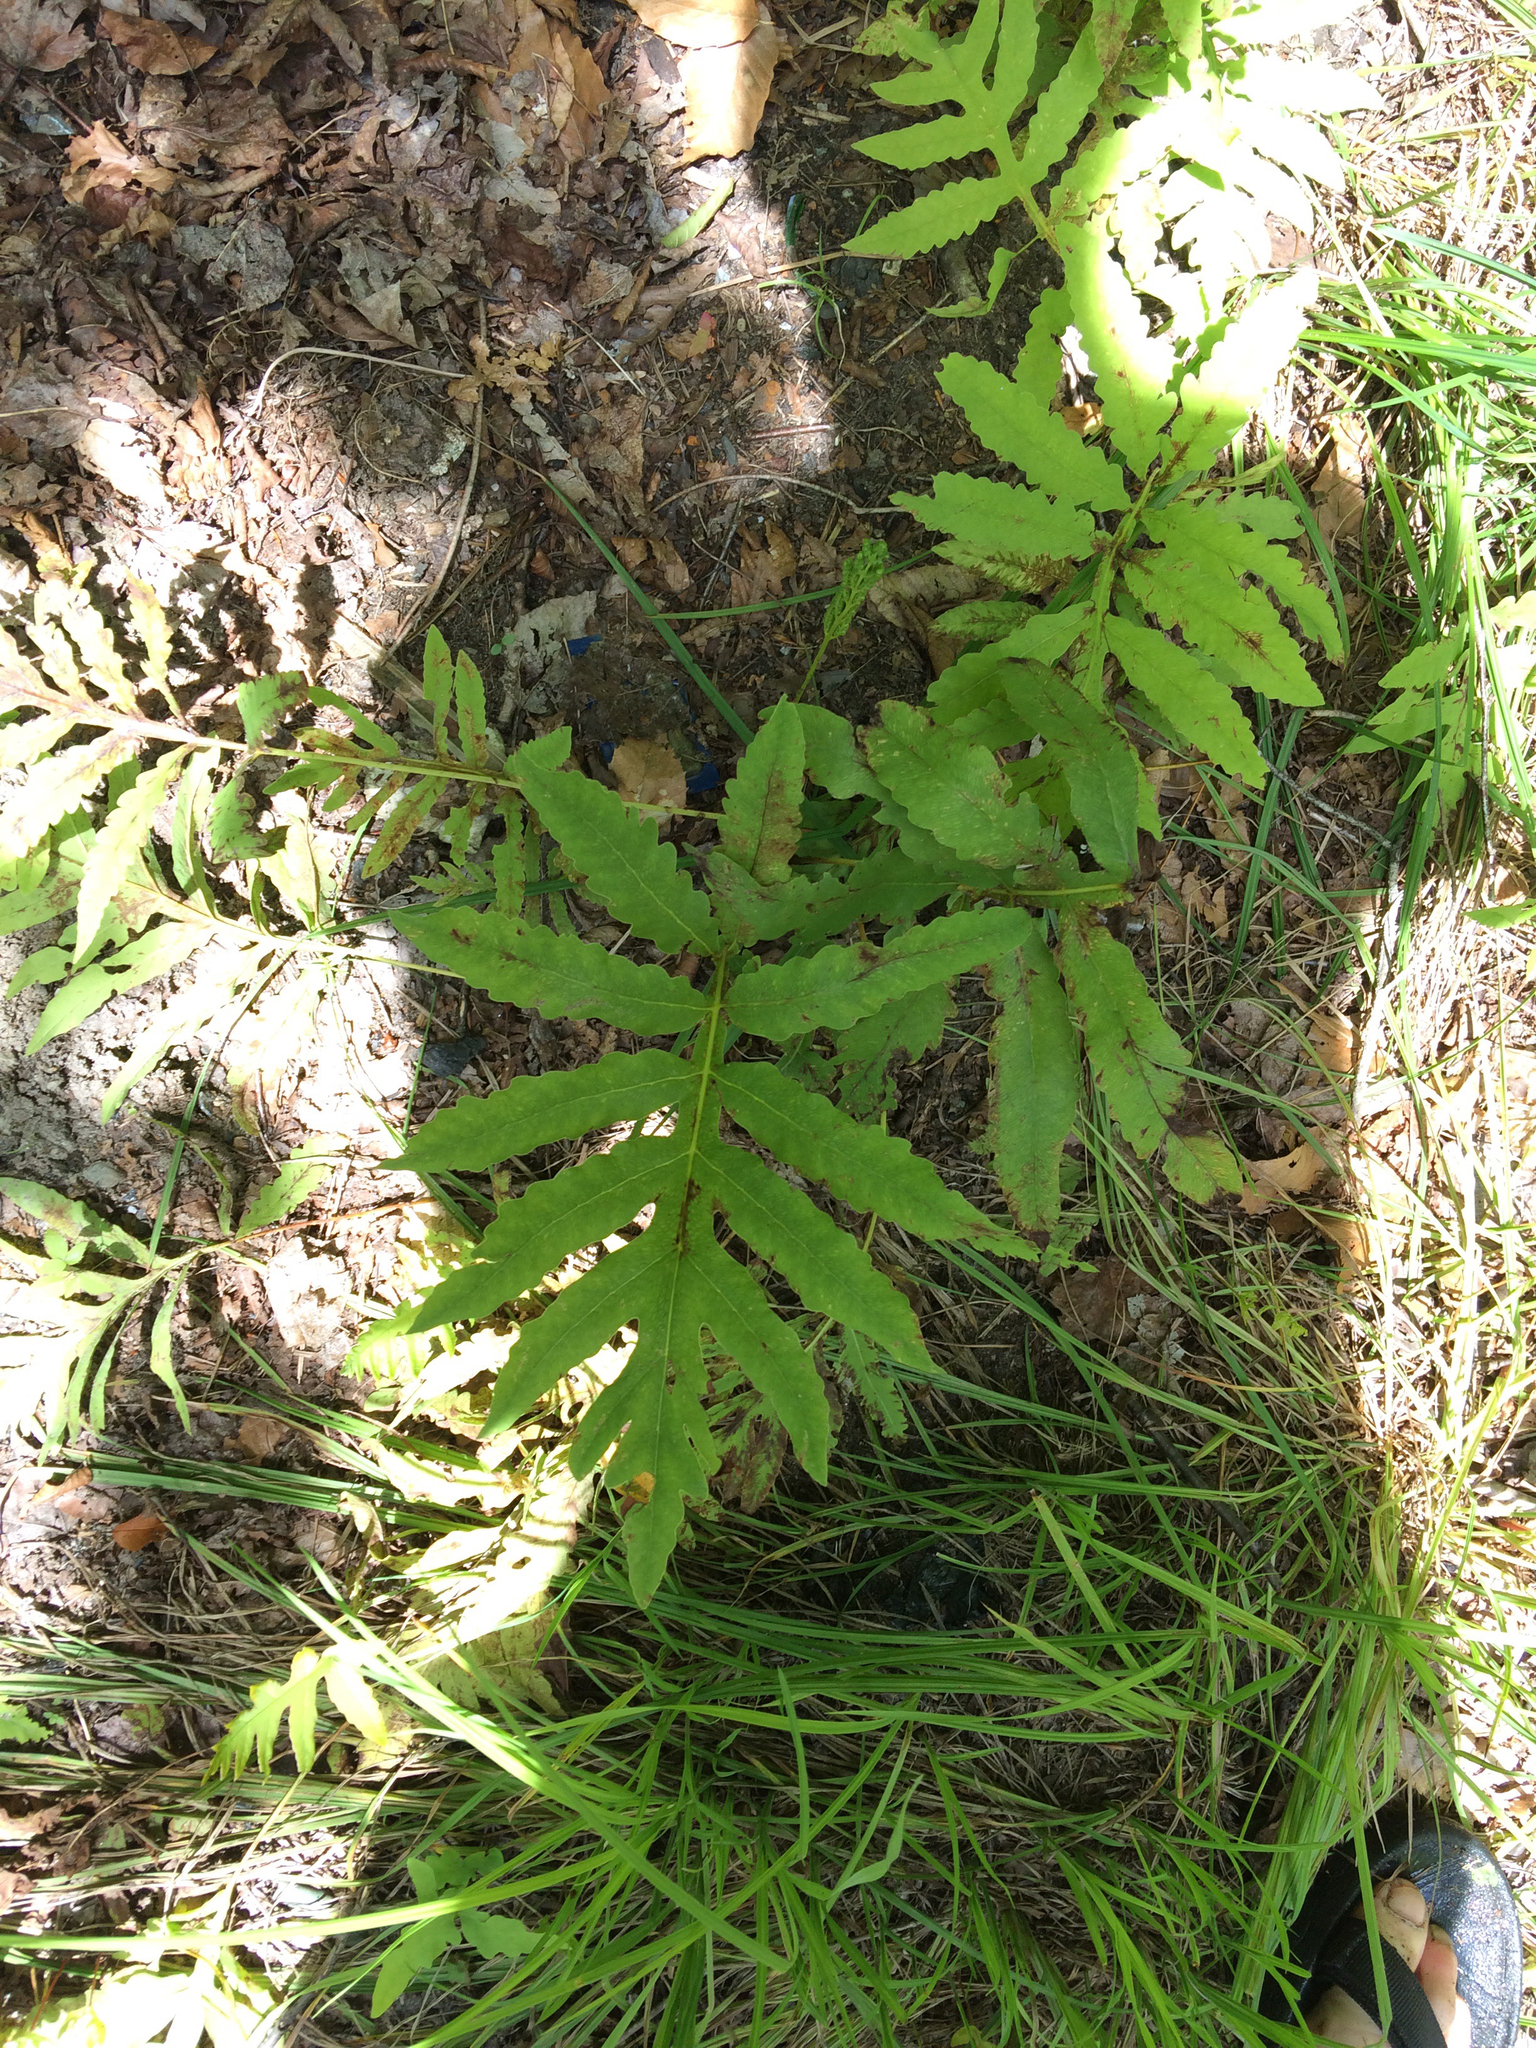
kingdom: Plantae
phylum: Tracheophyta
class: Polypodiopsida
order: Polypodiales
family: Onocleaceae
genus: Onoclea
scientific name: Onoclea sensibilis
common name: Sensitive fern
